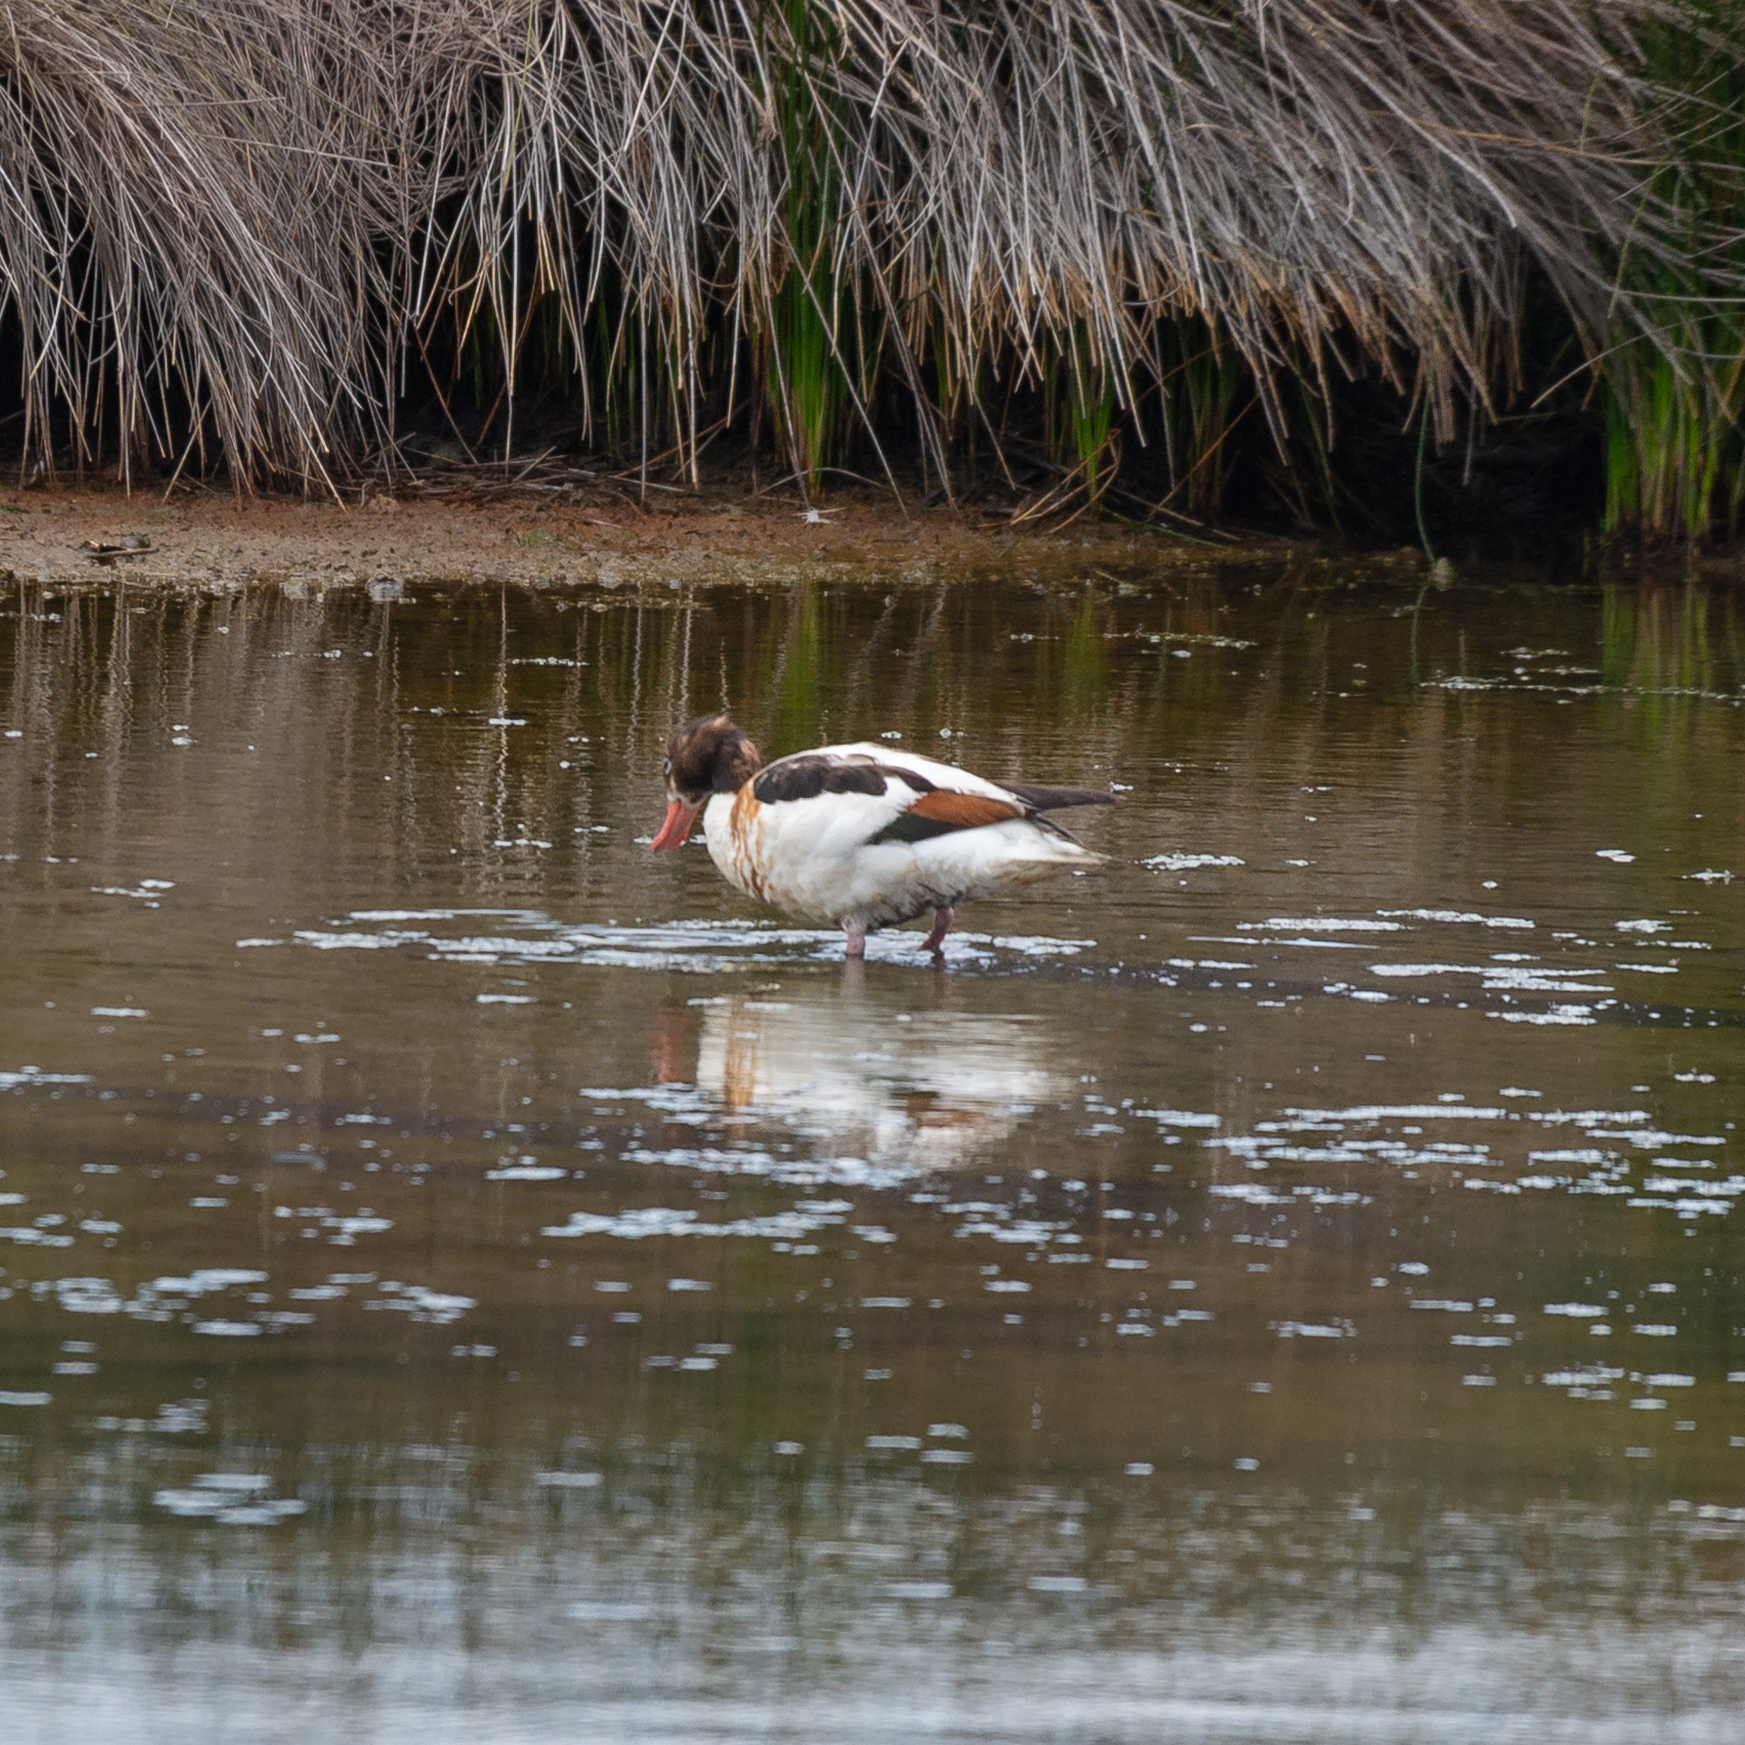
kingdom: Animalia
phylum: Chordata
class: Aves
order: Anseriformes
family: Anatidae
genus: Tadorna
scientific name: Tadorna tadorna
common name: Common shelduck
